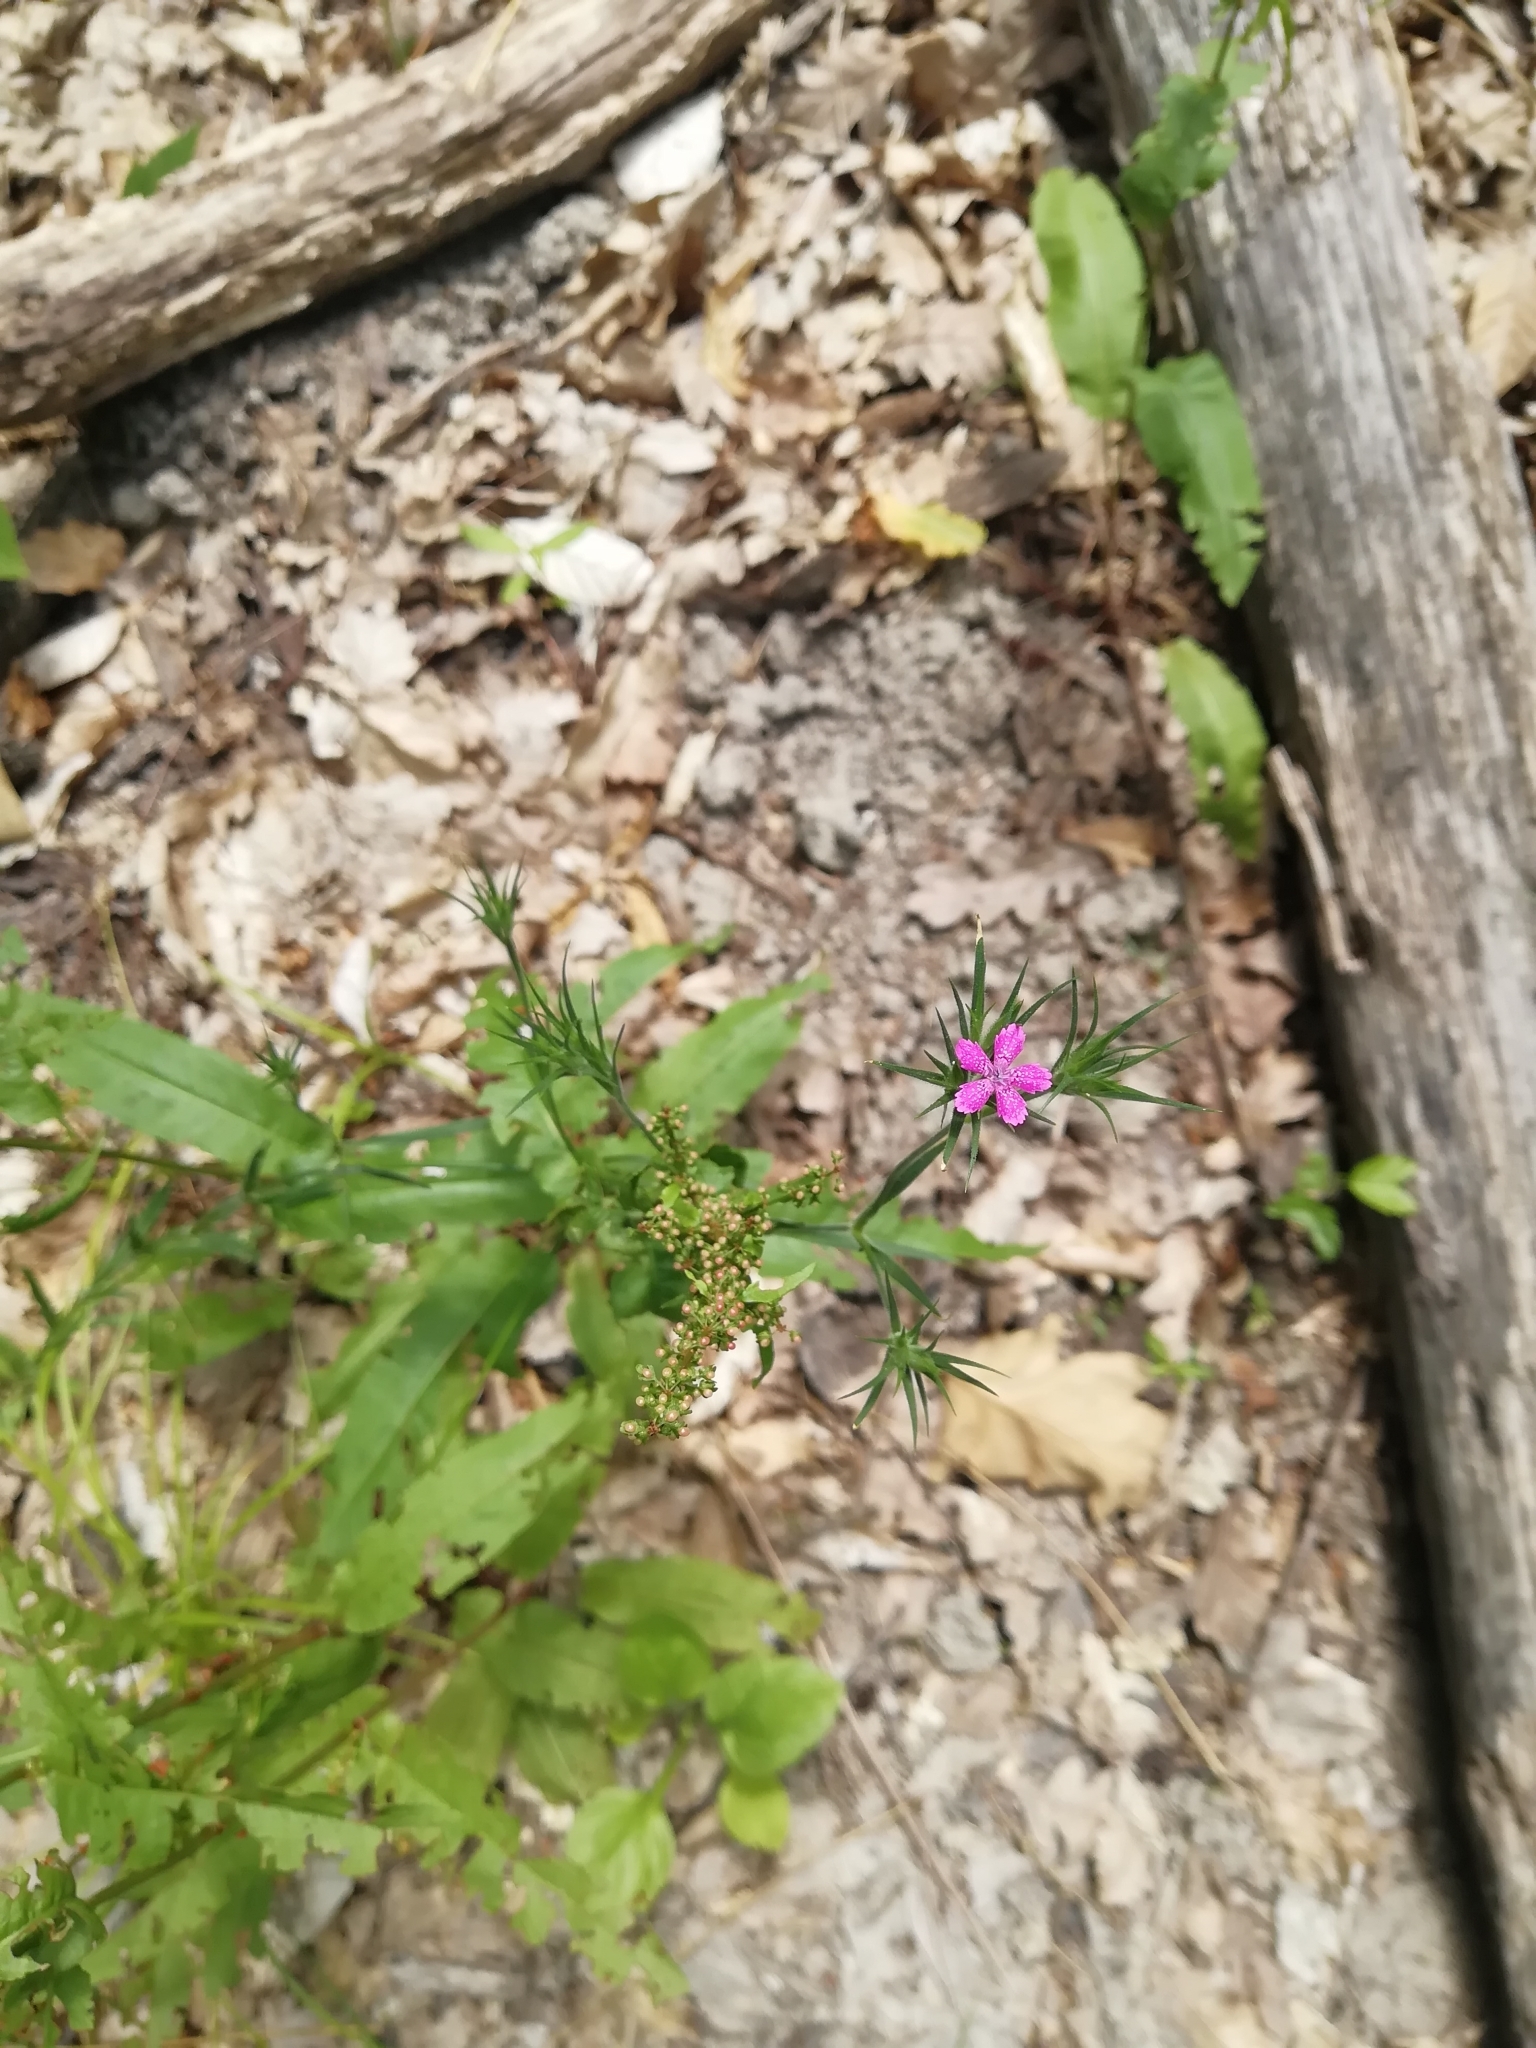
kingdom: Plantae
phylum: Tracheophyta
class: Magnoliopsida
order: Caryophyllales
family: Caryophyllaceae
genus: Dianthus
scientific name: Dianthus armeria
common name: Deptford pink
